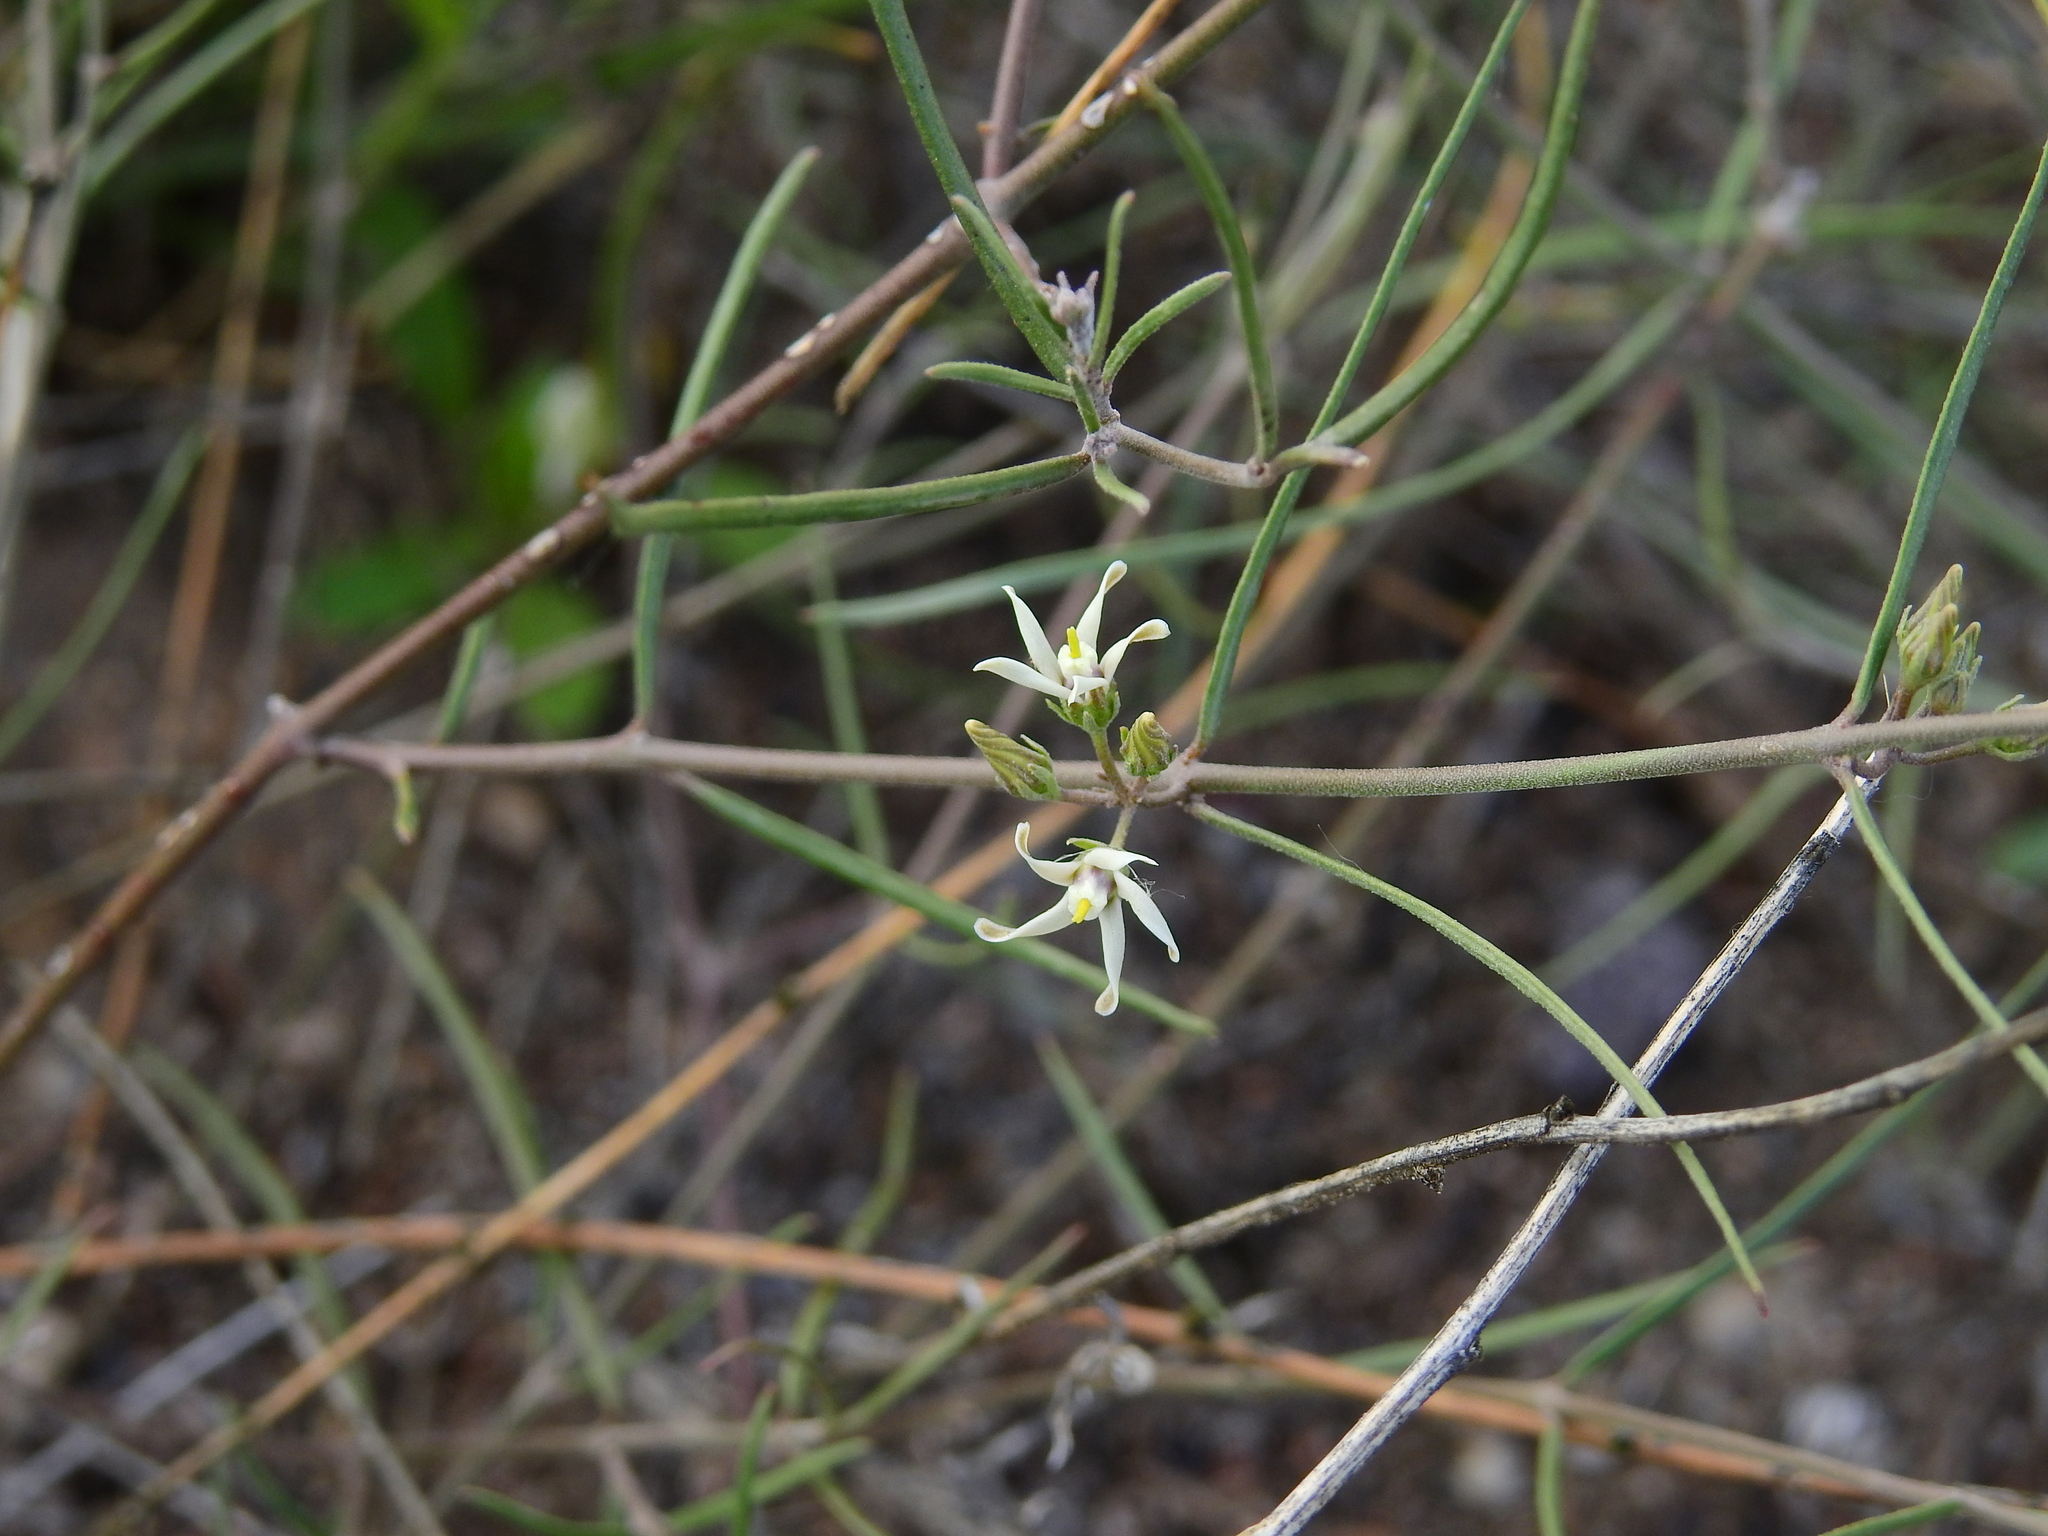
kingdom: Plantae
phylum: Tracheophyta
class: Magnoliopsida
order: Gentianales
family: Apocynaceae
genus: Tweedia
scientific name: Tweedia brunonis
